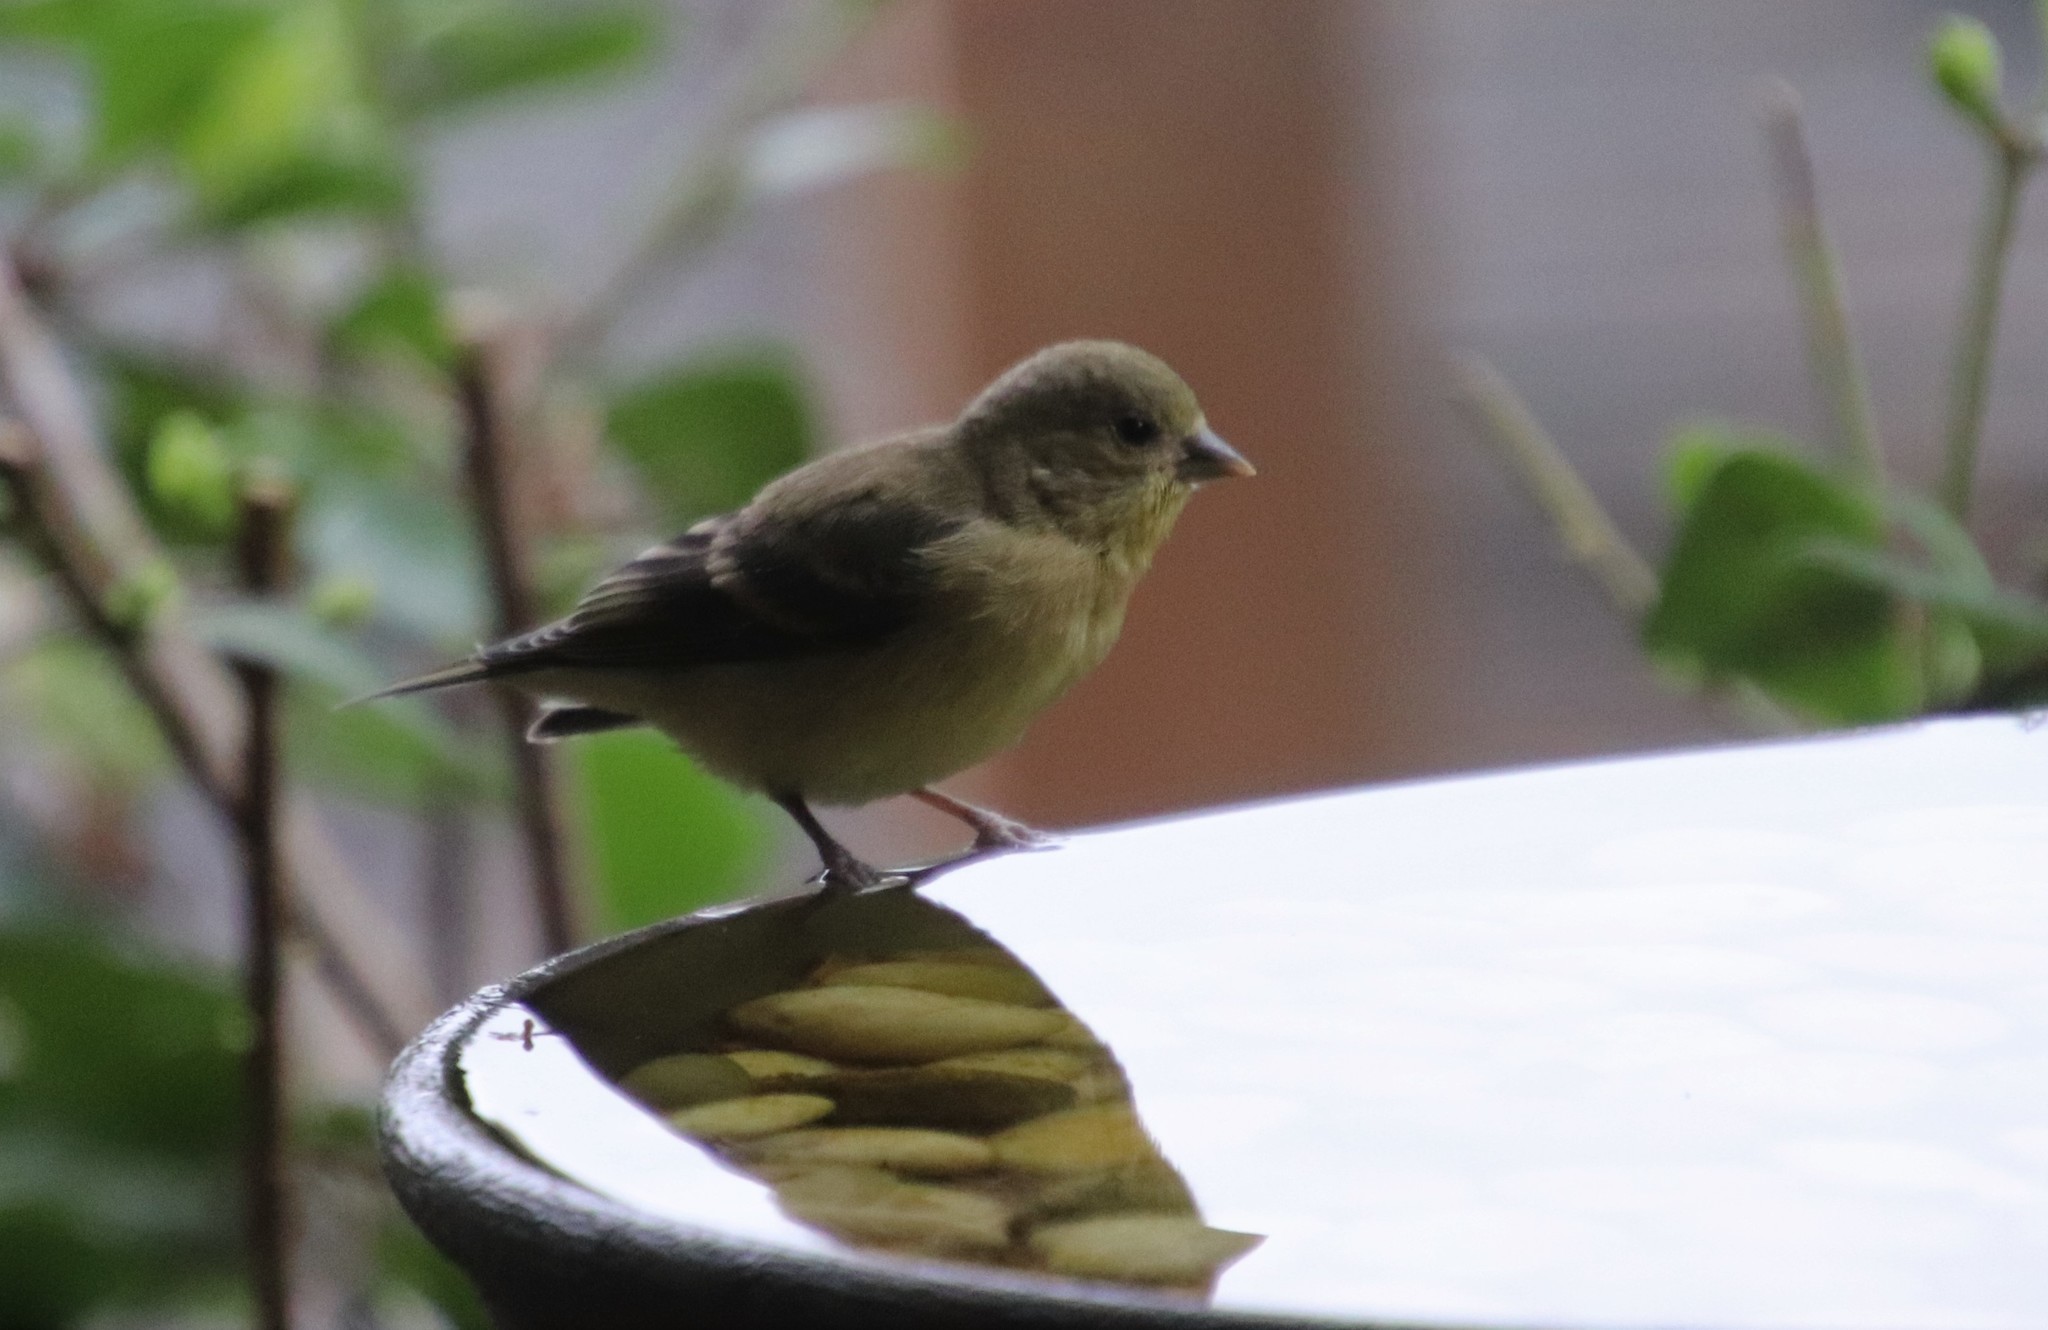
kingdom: Animalia
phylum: Chordata
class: Aves
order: Passeriformes
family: Fringillidae
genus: Spinus
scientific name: Spinus psaltria
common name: Lesser goldfinch
